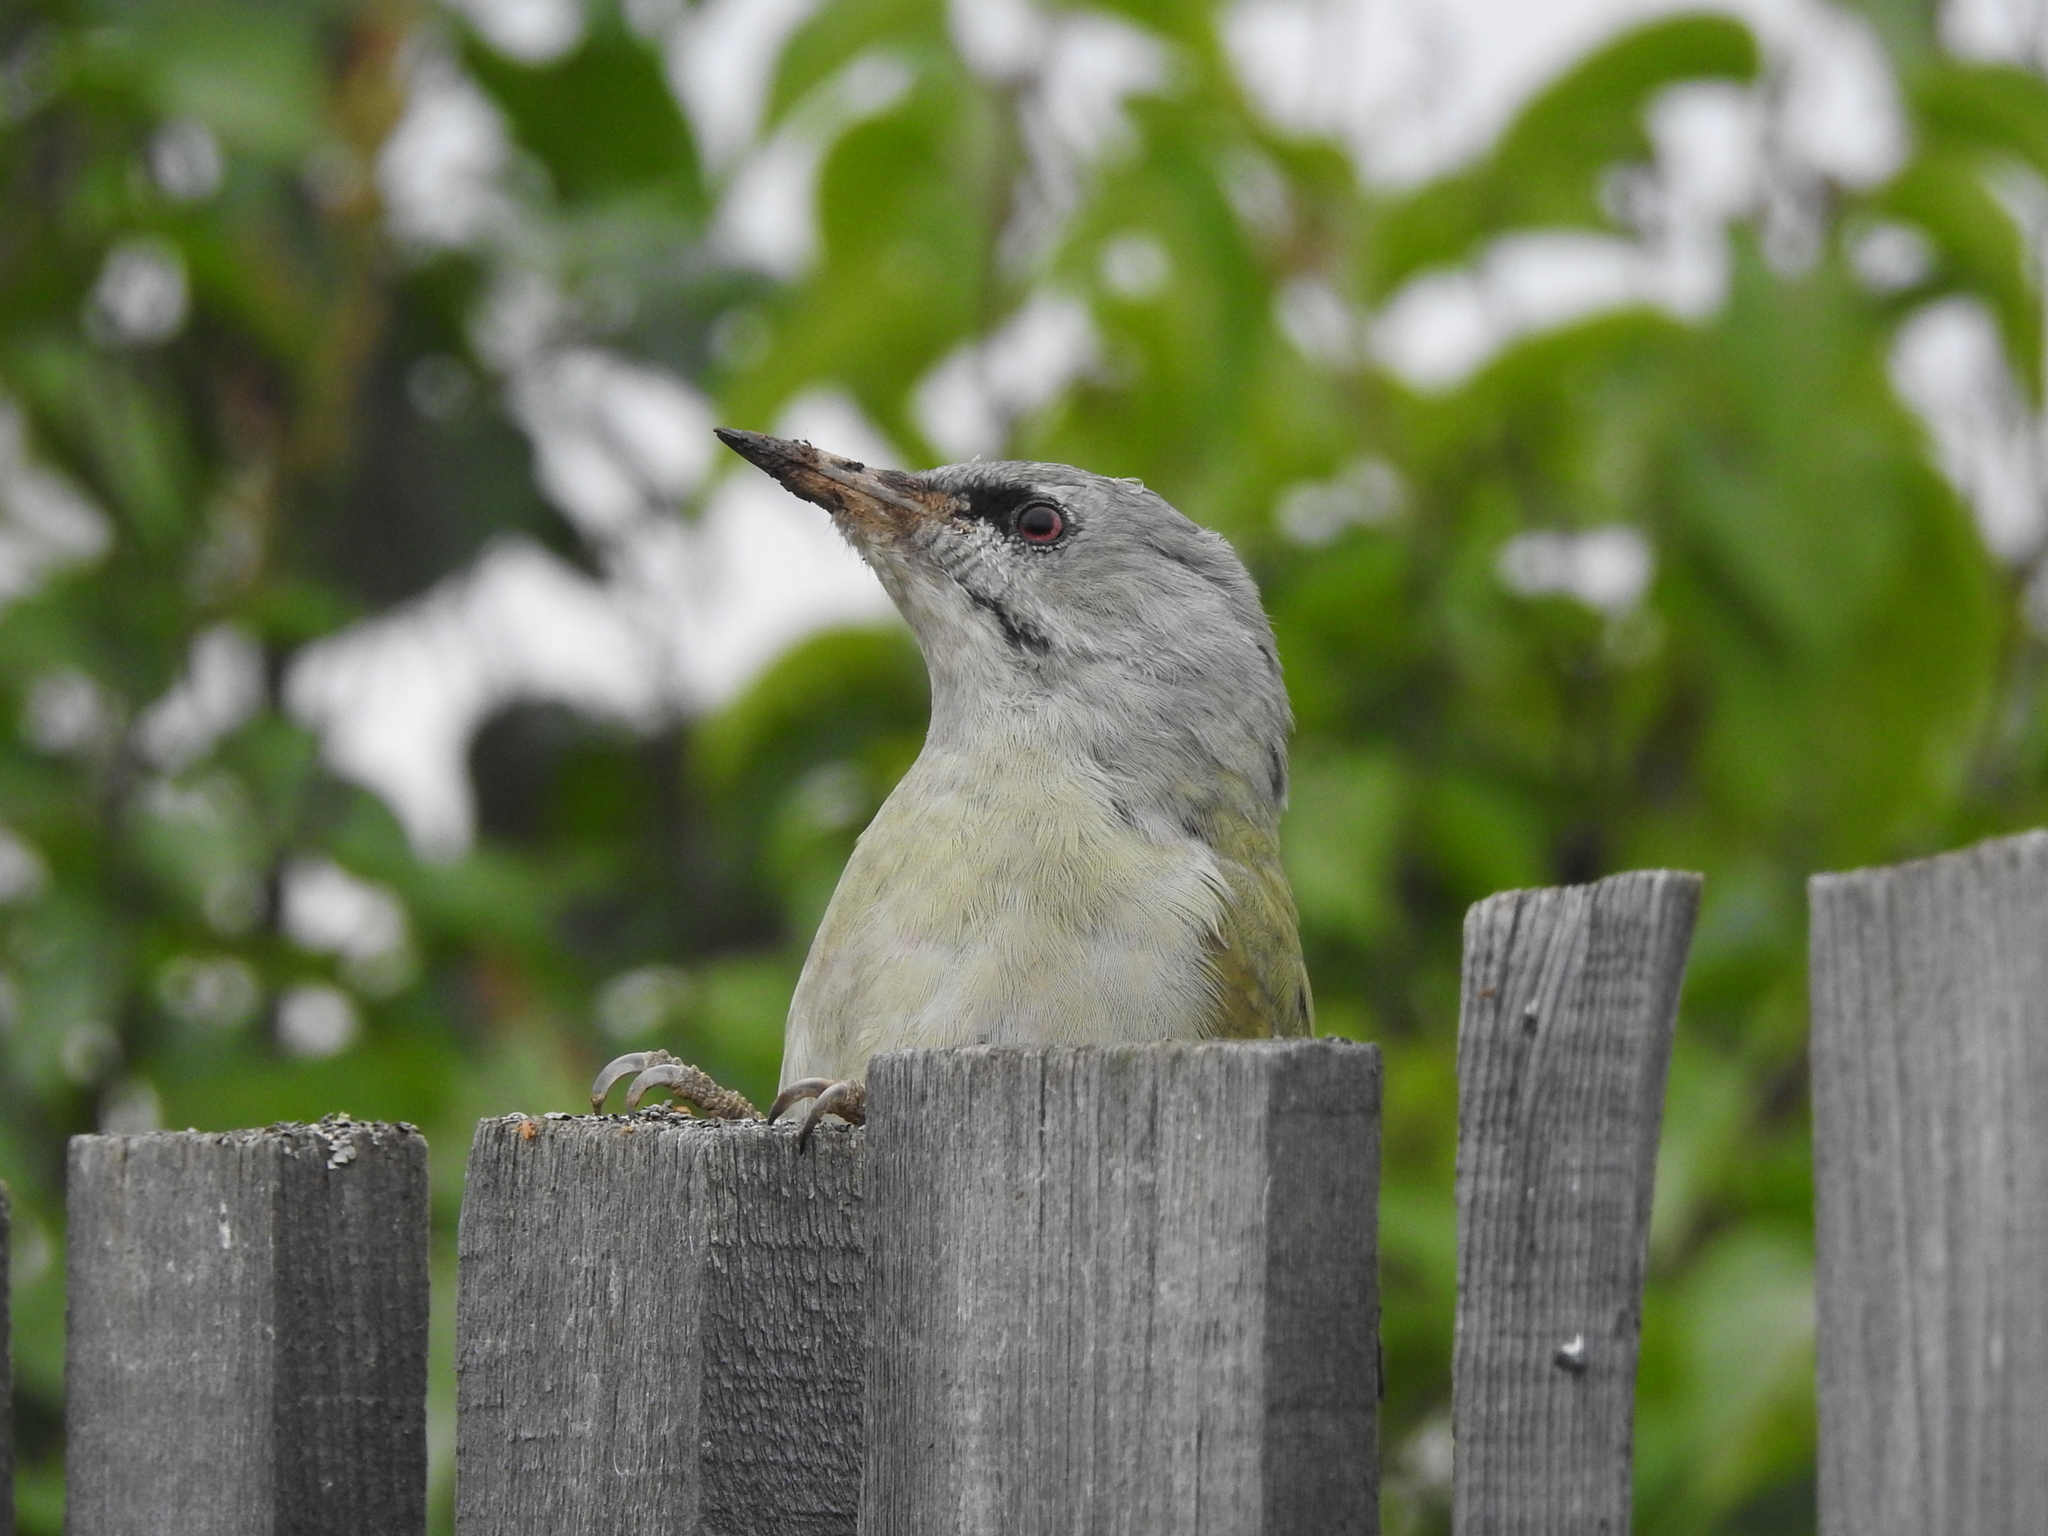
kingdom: Animalia
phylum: Chordata
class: Aves
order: Piciformes
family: Picidae
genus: Picus
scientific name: Picus canus
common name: Grey-headed woodpecker
